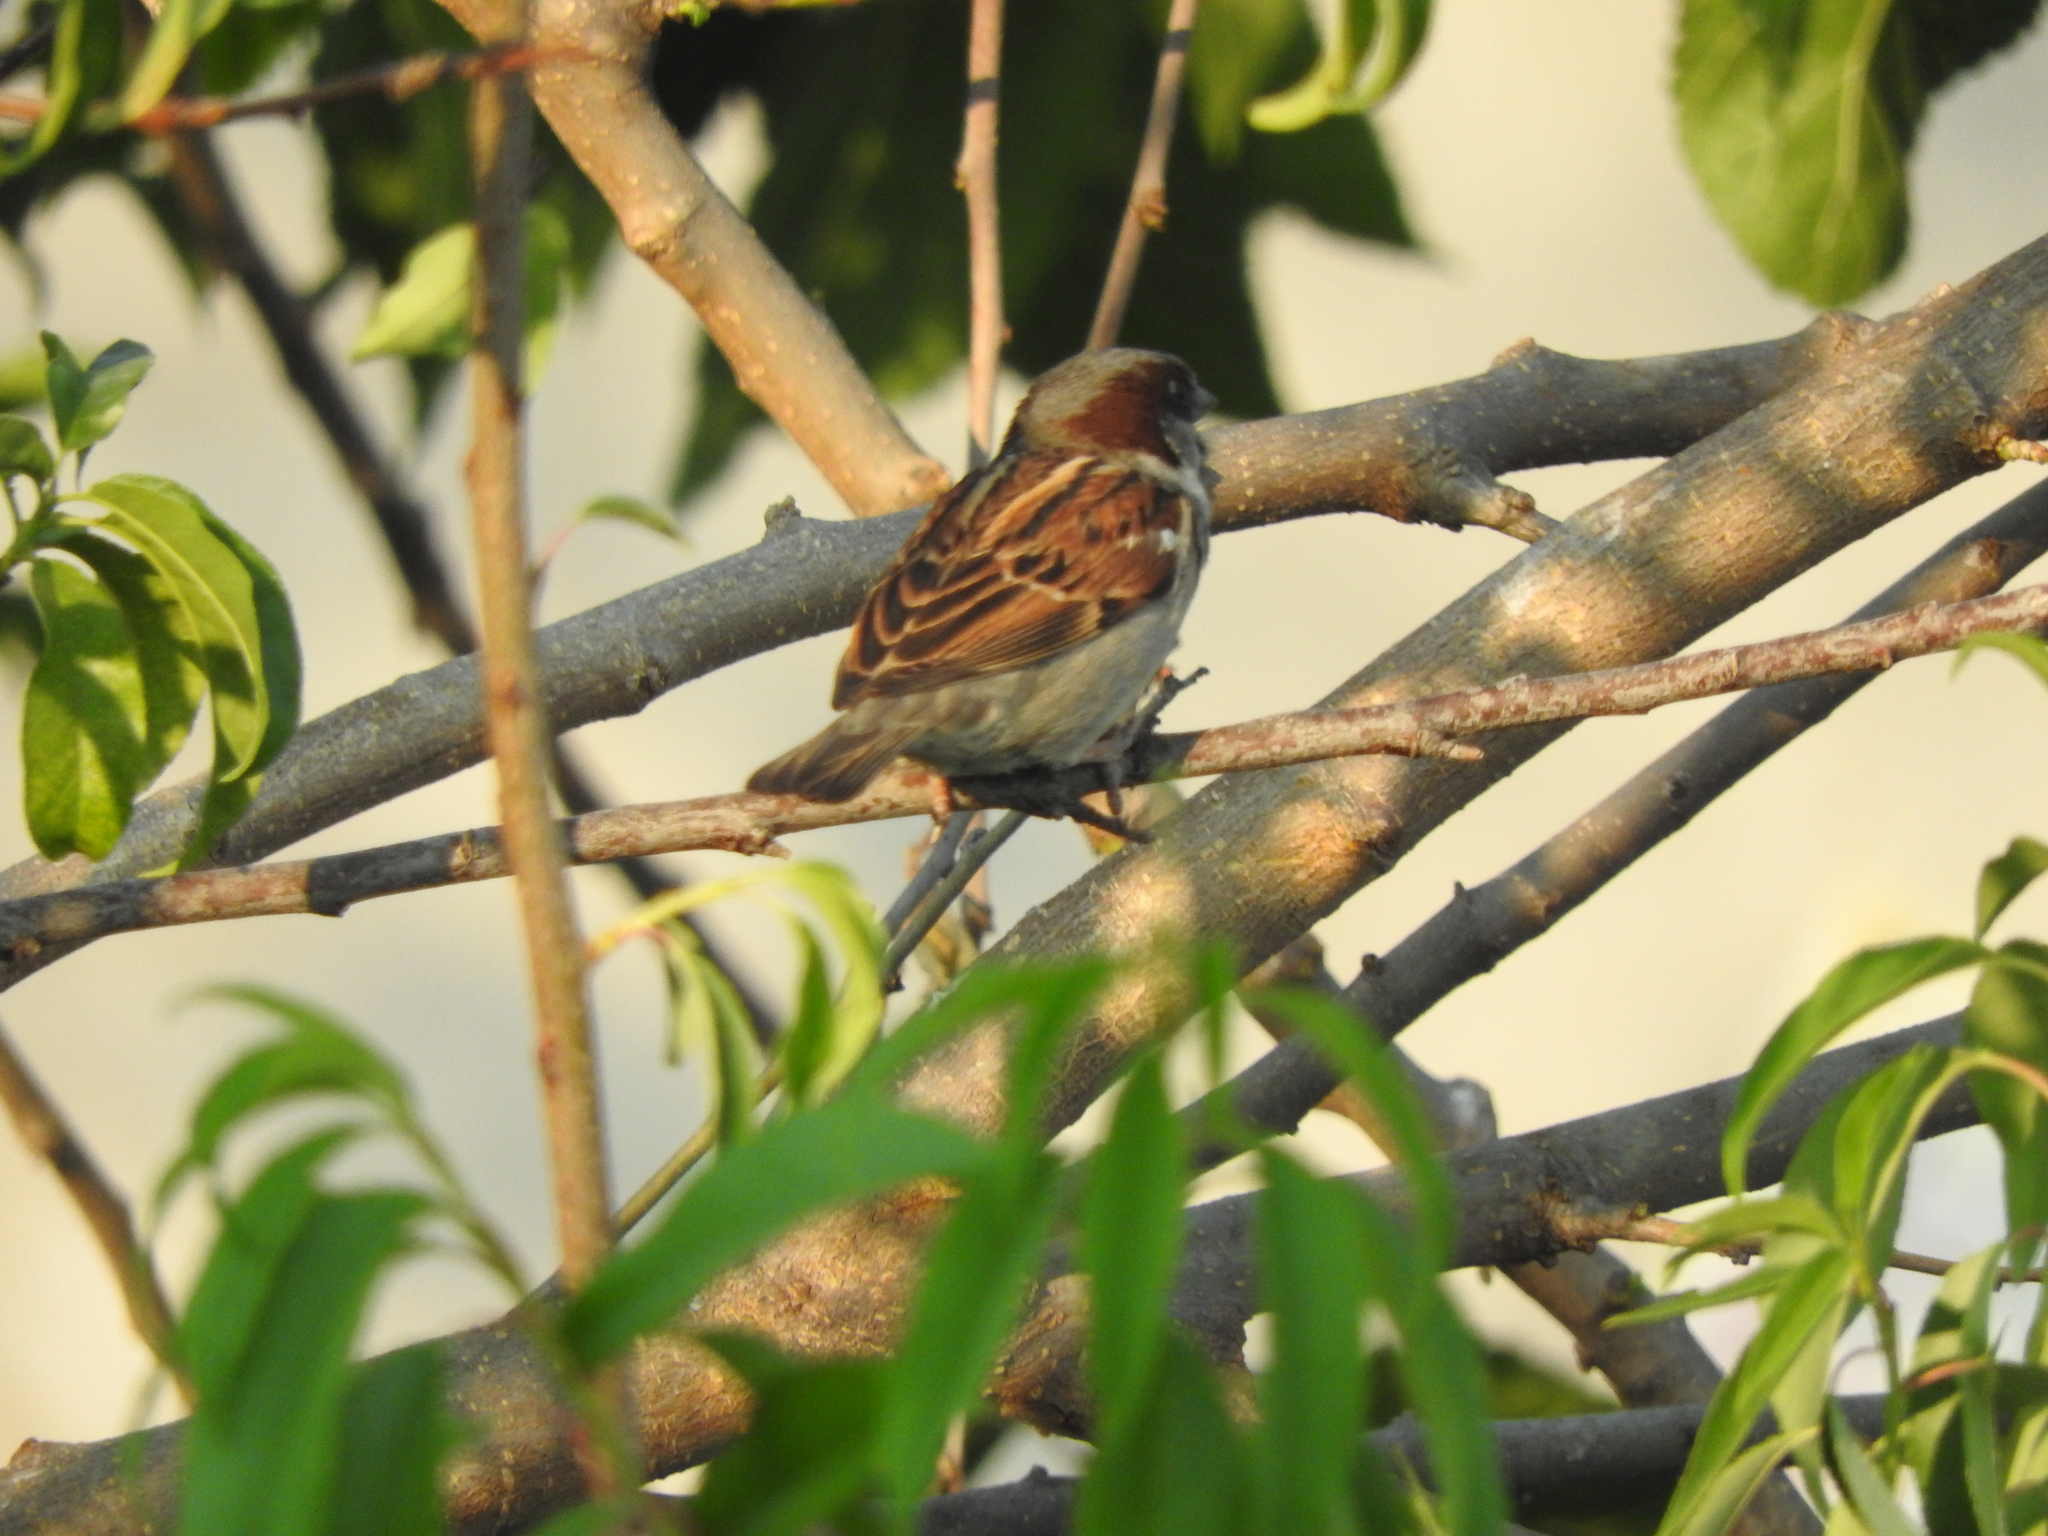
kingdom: Animalia
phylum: Chordata
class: Aves
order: Passeriformes
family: Passeridae
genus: Passer
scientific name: Passer domesticus
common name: House sparrow
